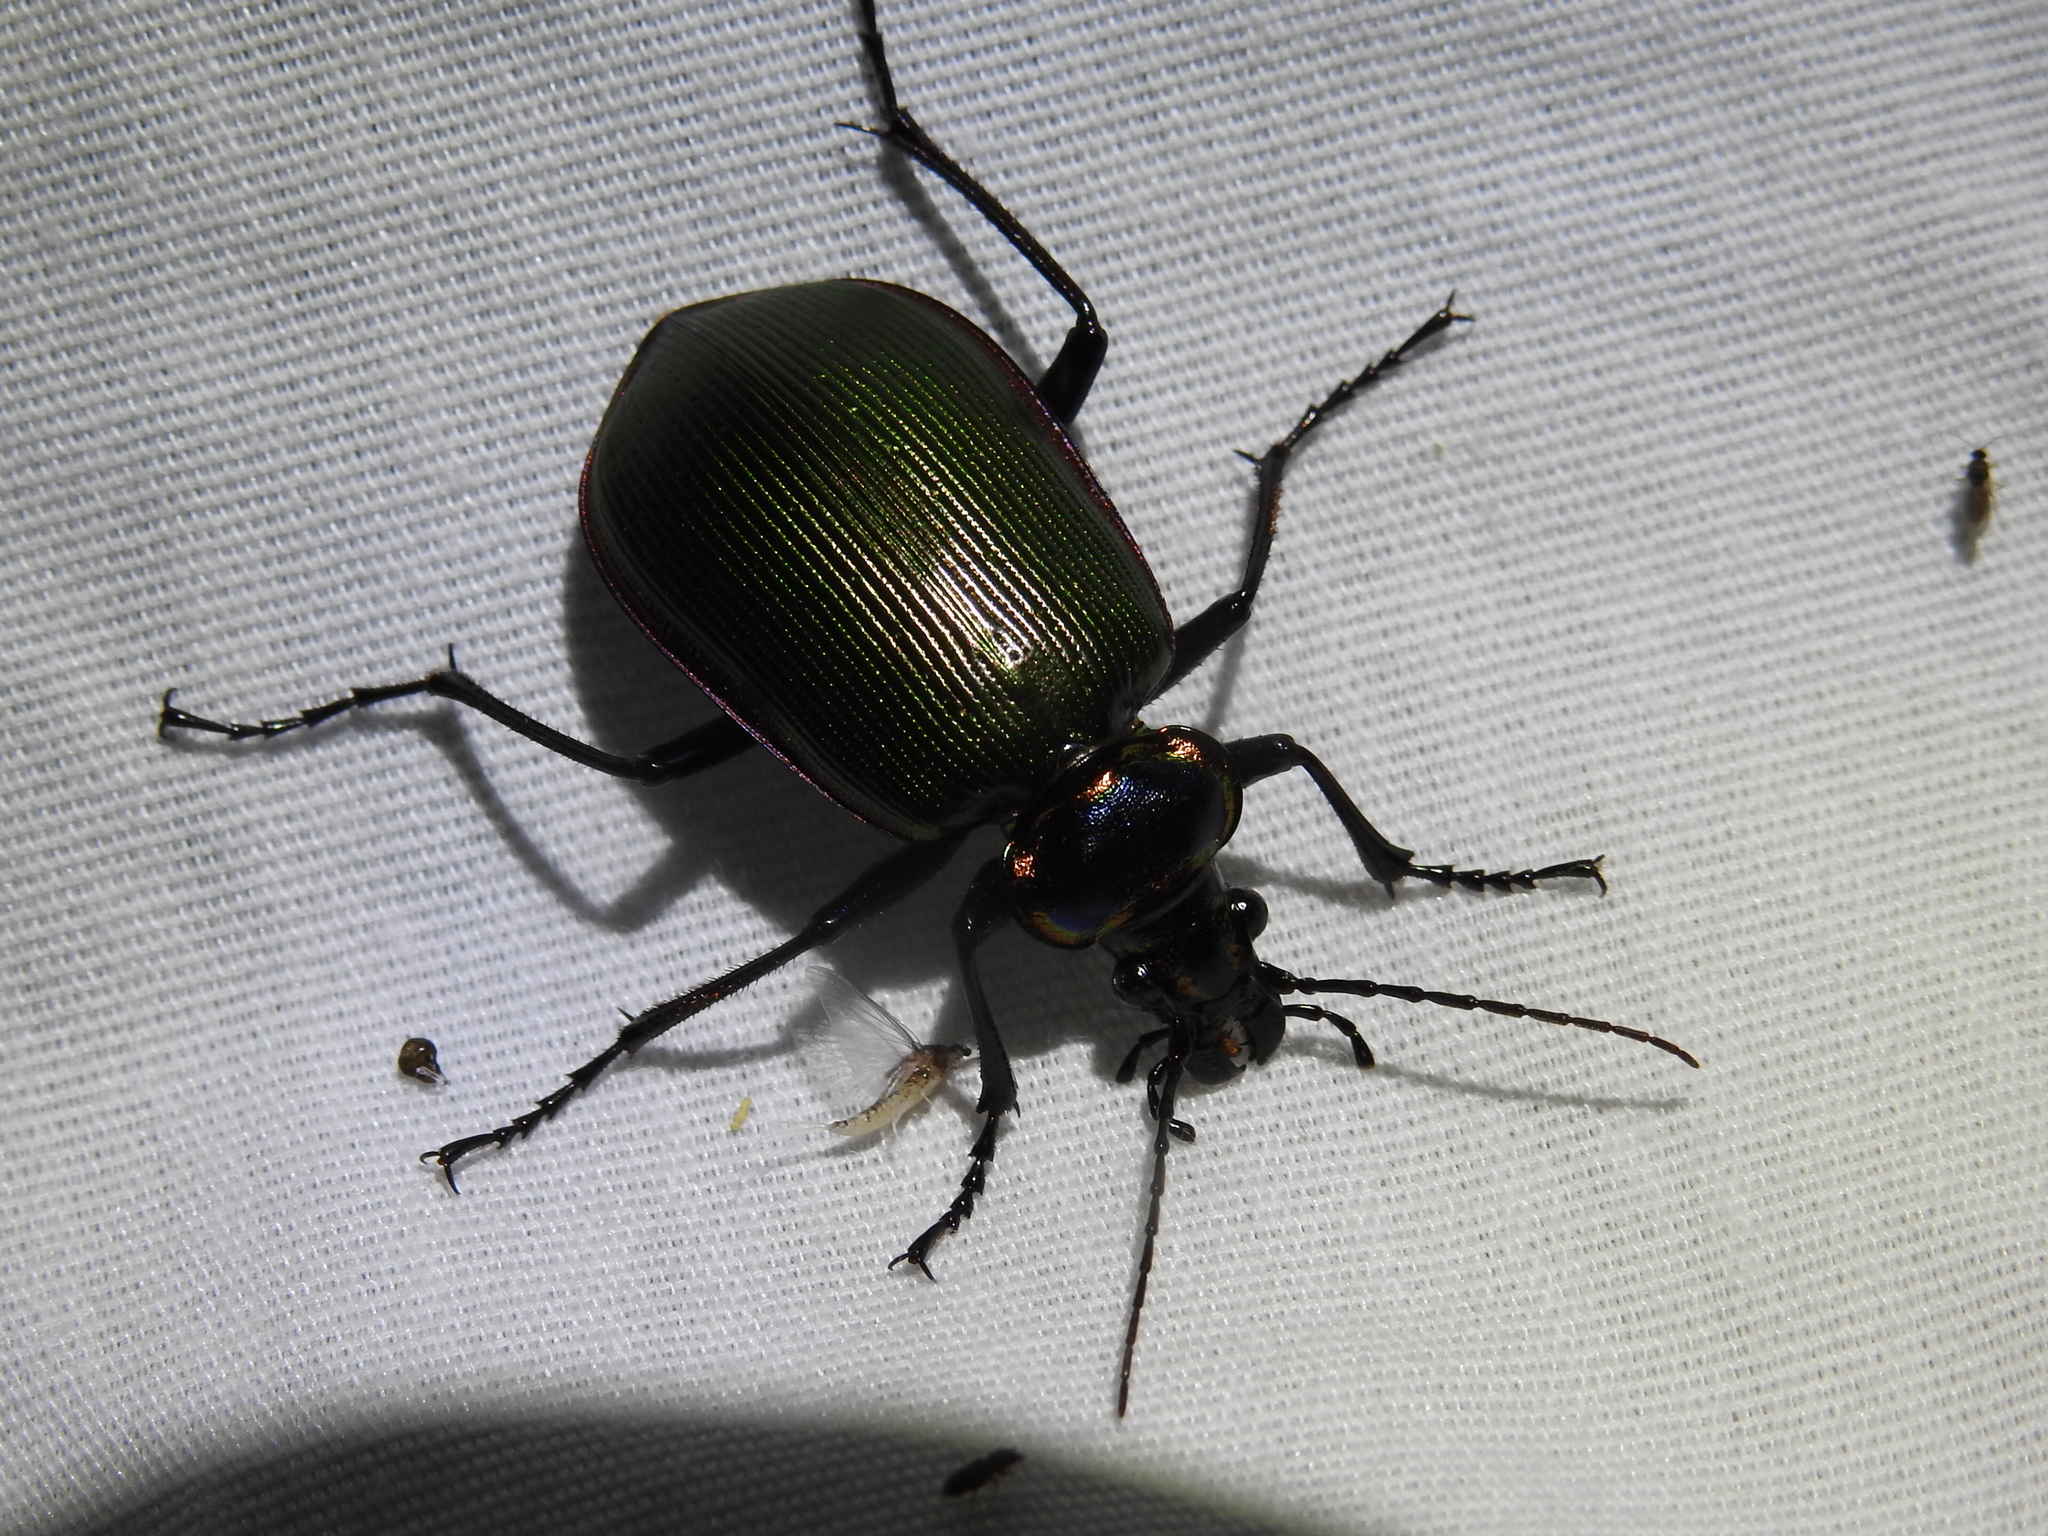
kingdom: Animalia
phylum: Arthropoda
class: Insecta
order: Coleoptera
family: Carabidae
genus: Calosoma
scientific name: Calosoma scrutator
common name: Fiery searcher beetle
